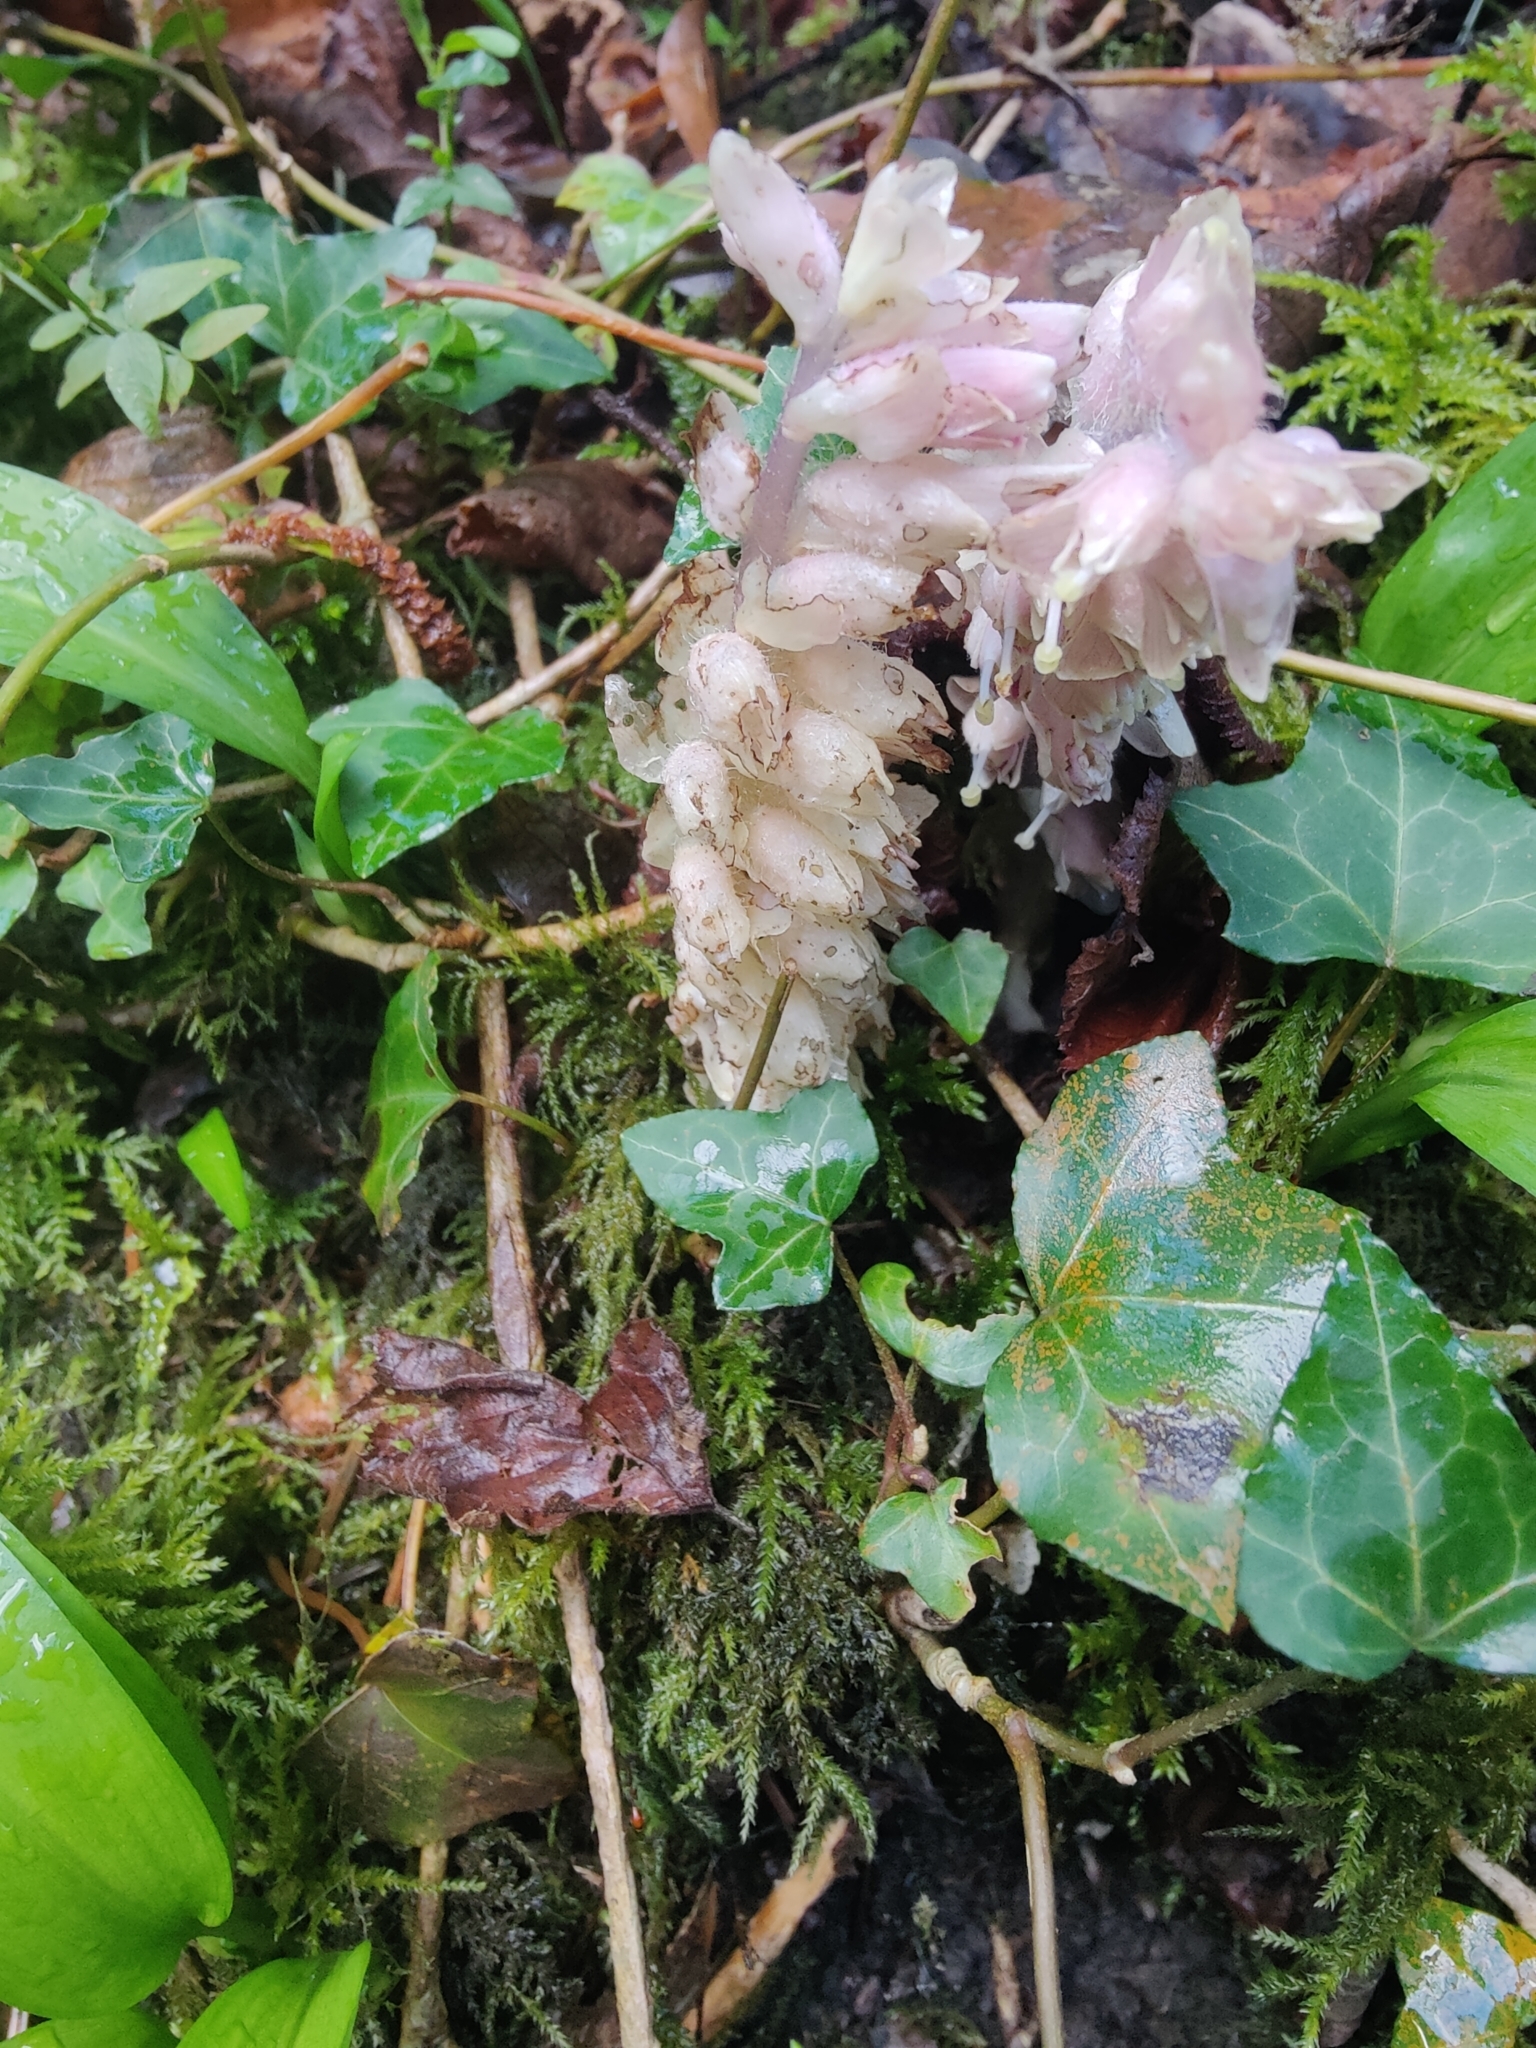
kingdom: Plantae
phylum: Tracheophyta
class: Magnoliopsida
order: Lamiales
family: Orobanchaceae
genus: Lathraea
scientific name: Lathraea squamaria
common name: Toothwort
